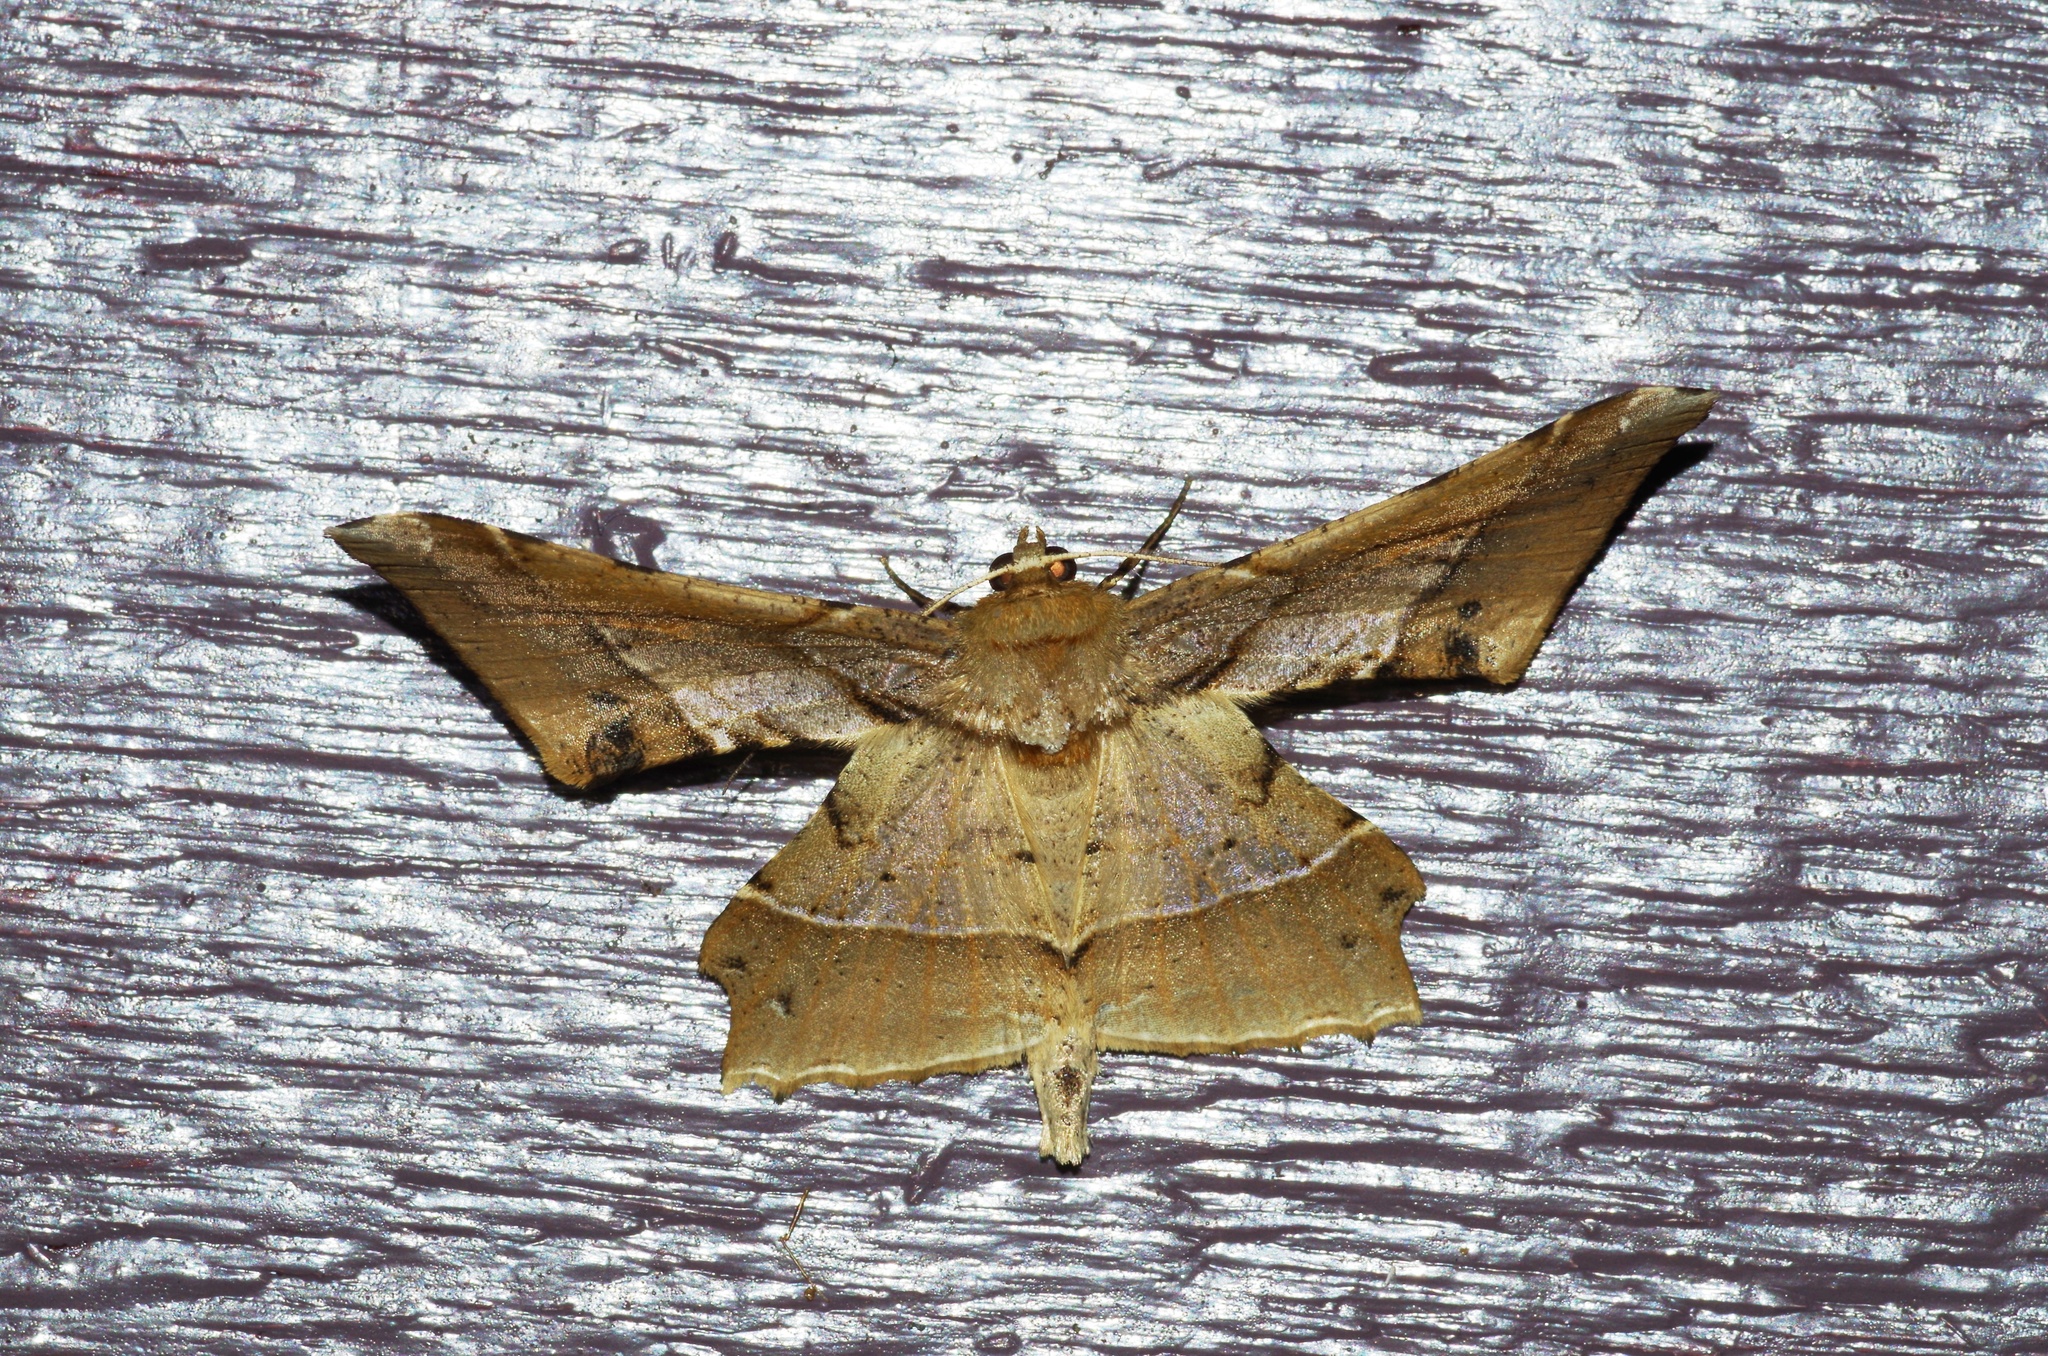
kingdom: Animalia
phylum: Arthropoda
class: Insecta
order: Lepidoptera
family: Geometridae
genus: Krananda
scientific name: Krananda latimarginaria
